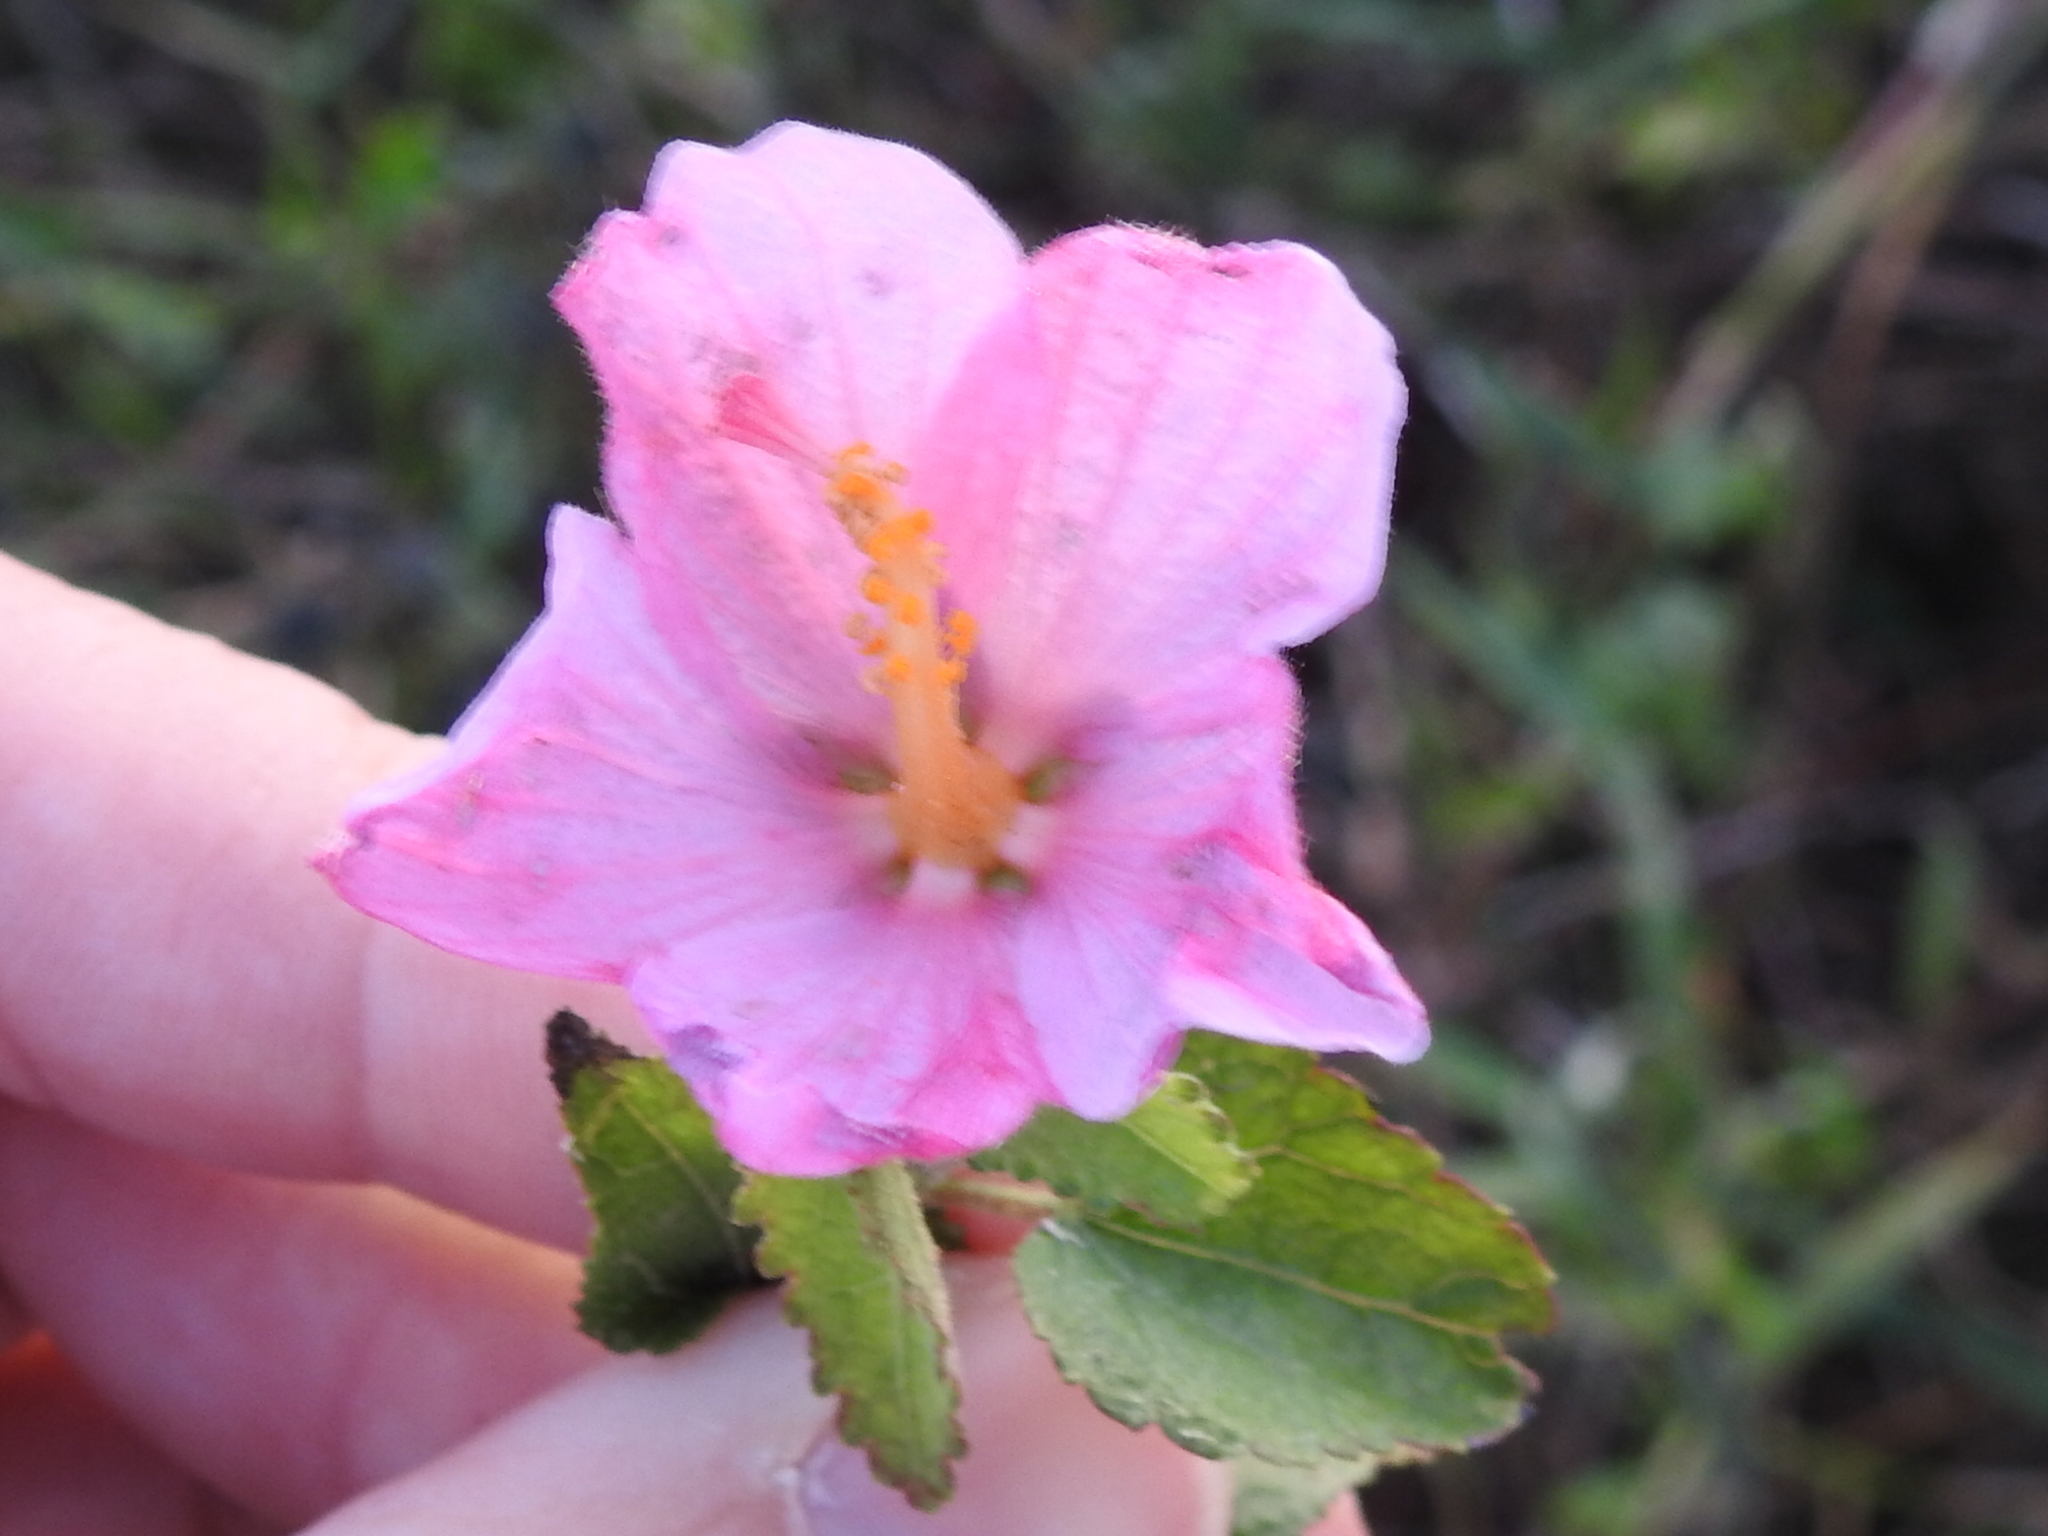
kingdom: Plantae
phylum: Tracheophyta
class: Magnoliopsida
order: Malvales
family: Malvaceae
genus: Kosteletzkya
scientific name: Kosteletzkya pentacarpos
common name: Virginia saltmarsh mallow
